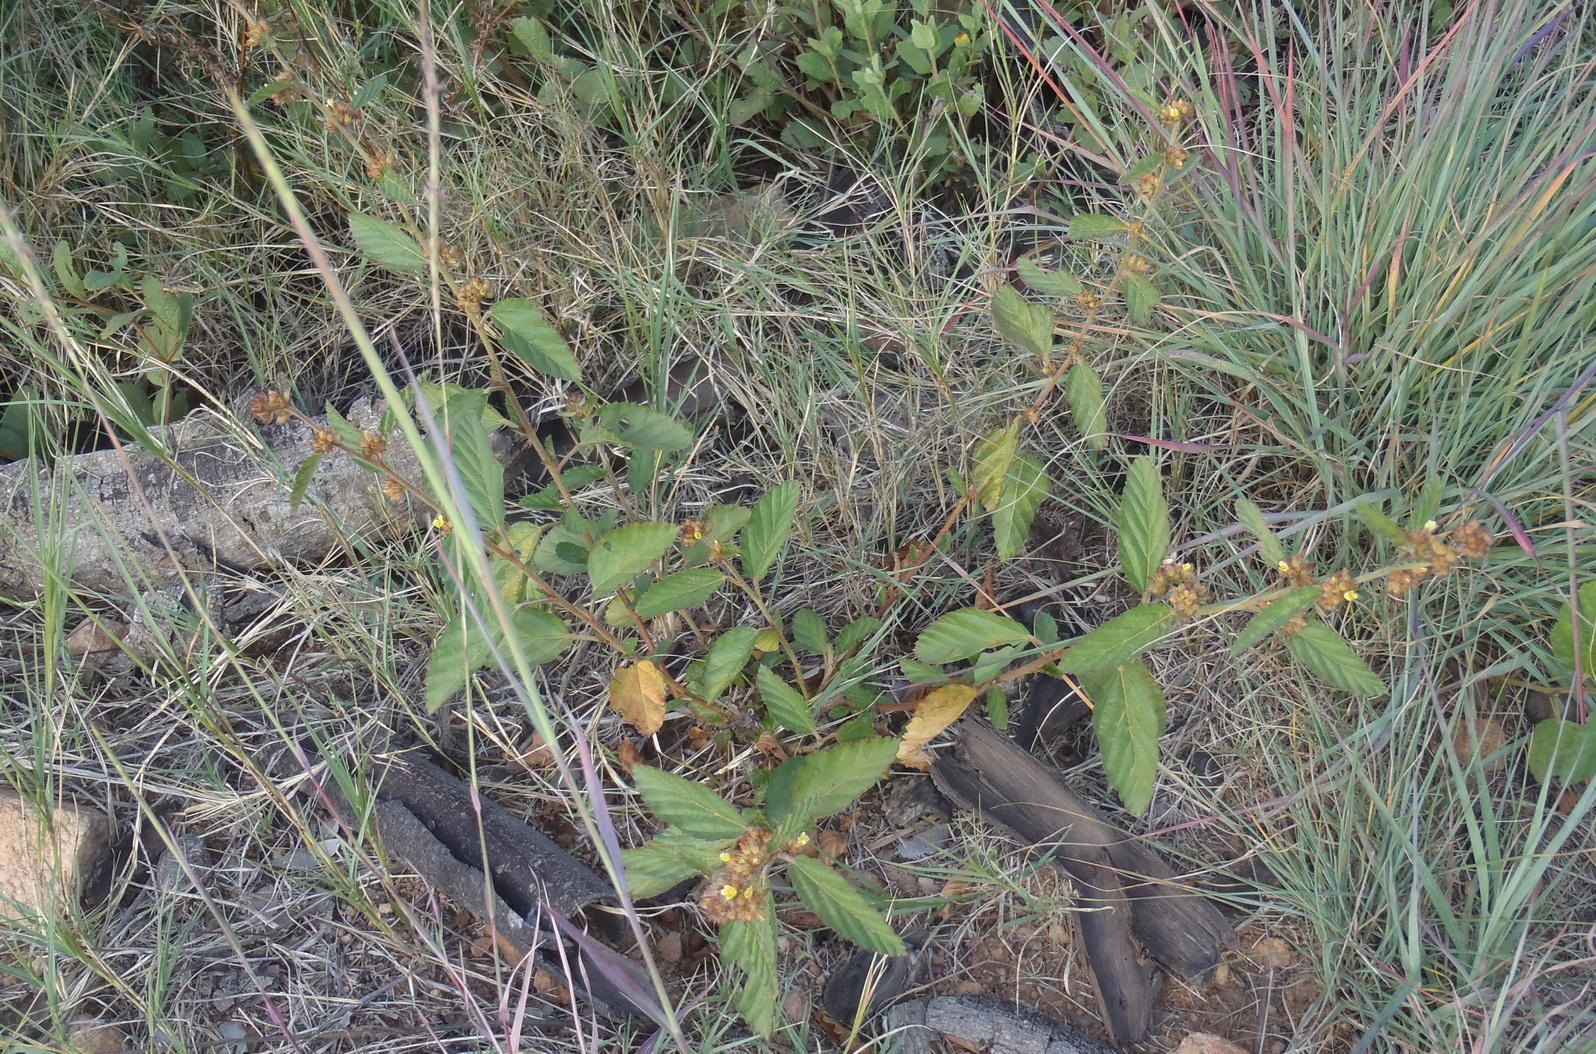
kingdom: Plantae
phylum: Tracheophyta
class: Magnoliopsida
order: Malvales
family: Malvaceae
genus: Waltheria
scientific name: Waltheria indica
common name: Leather-coat
